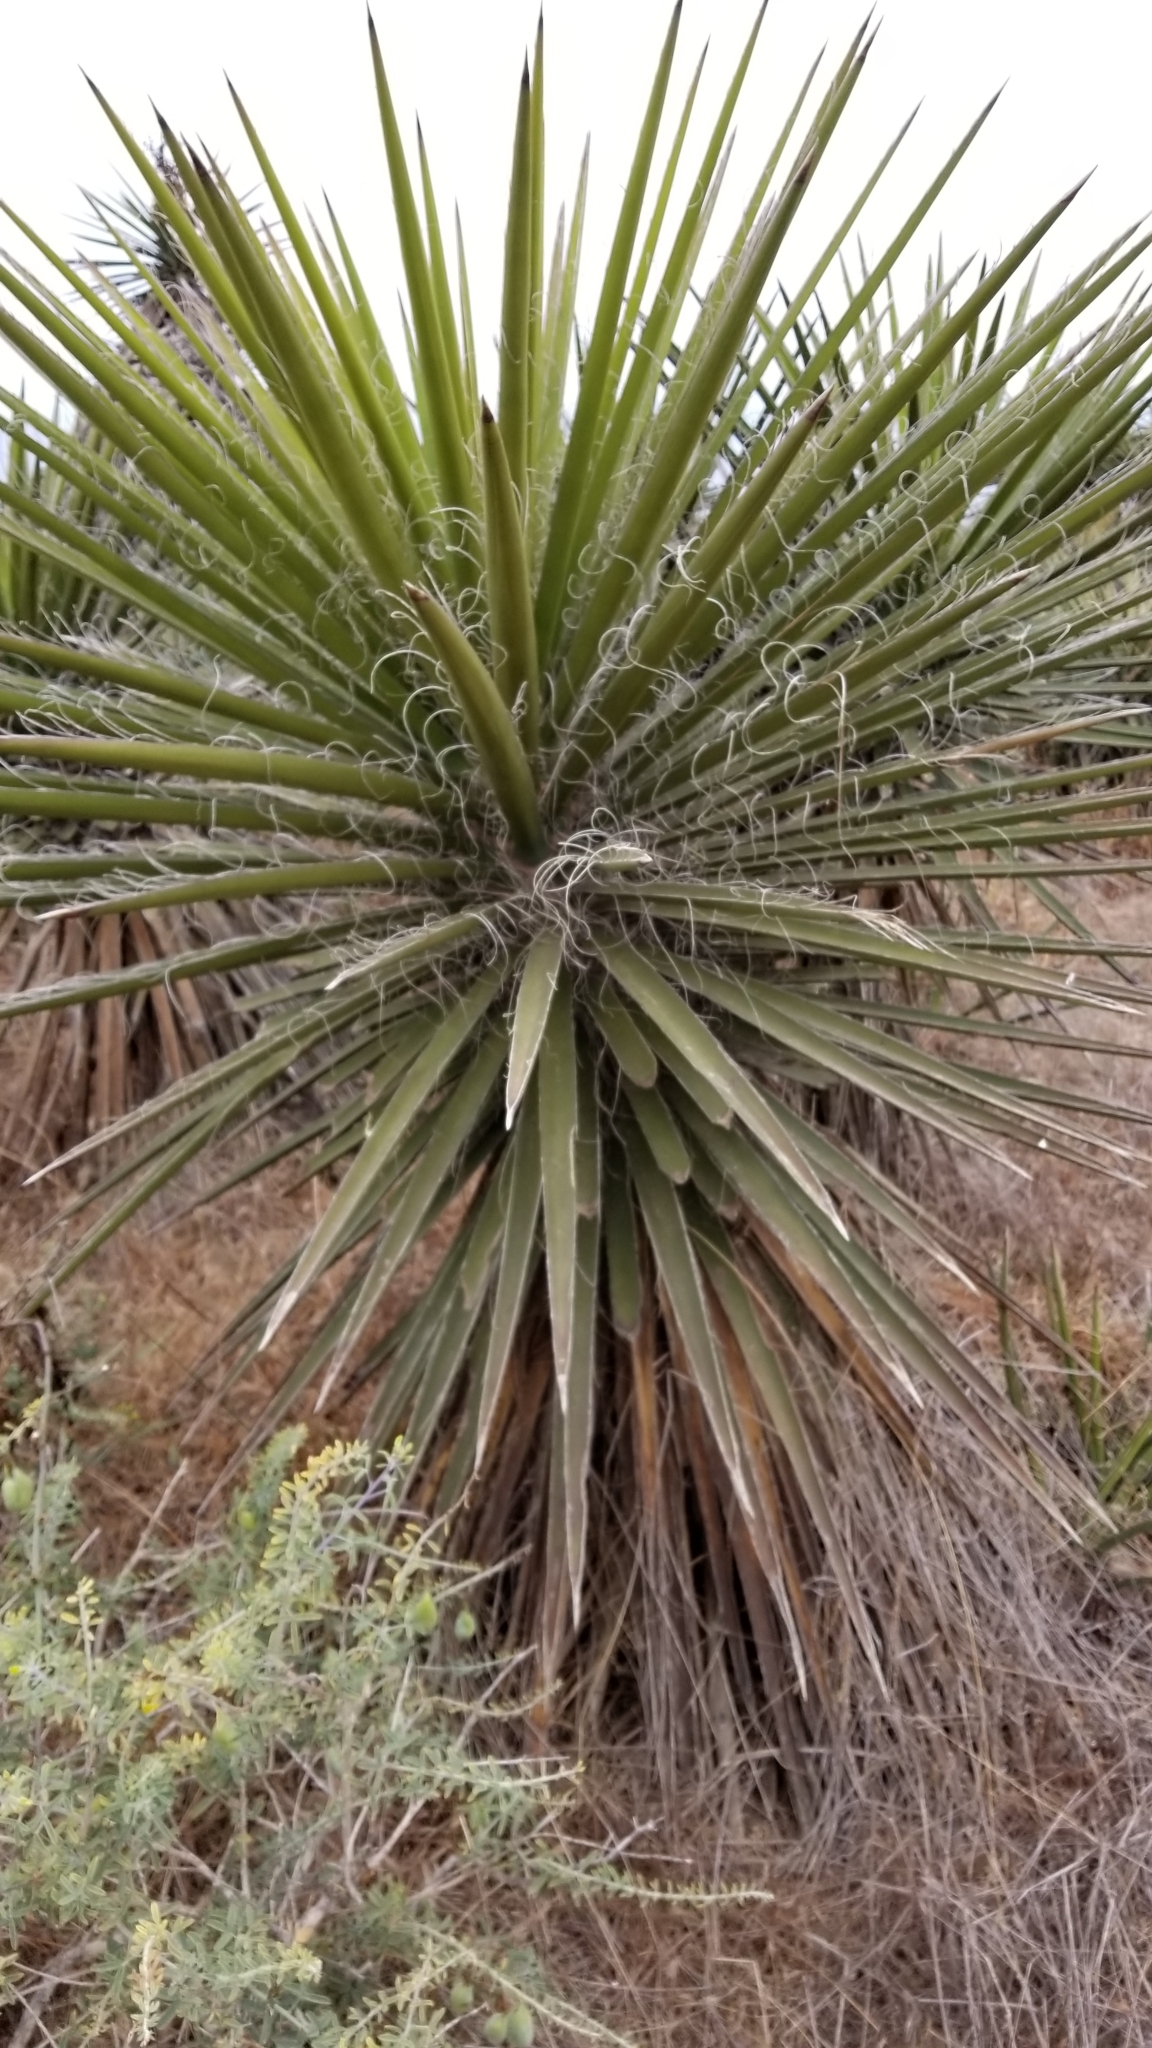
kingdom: Plantae
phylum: Tracheophyta
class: Liliopsida
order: Asparagales
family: Asparagaceae
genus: Yucca
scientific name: Yucca schidigera
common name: Mojave yucca
